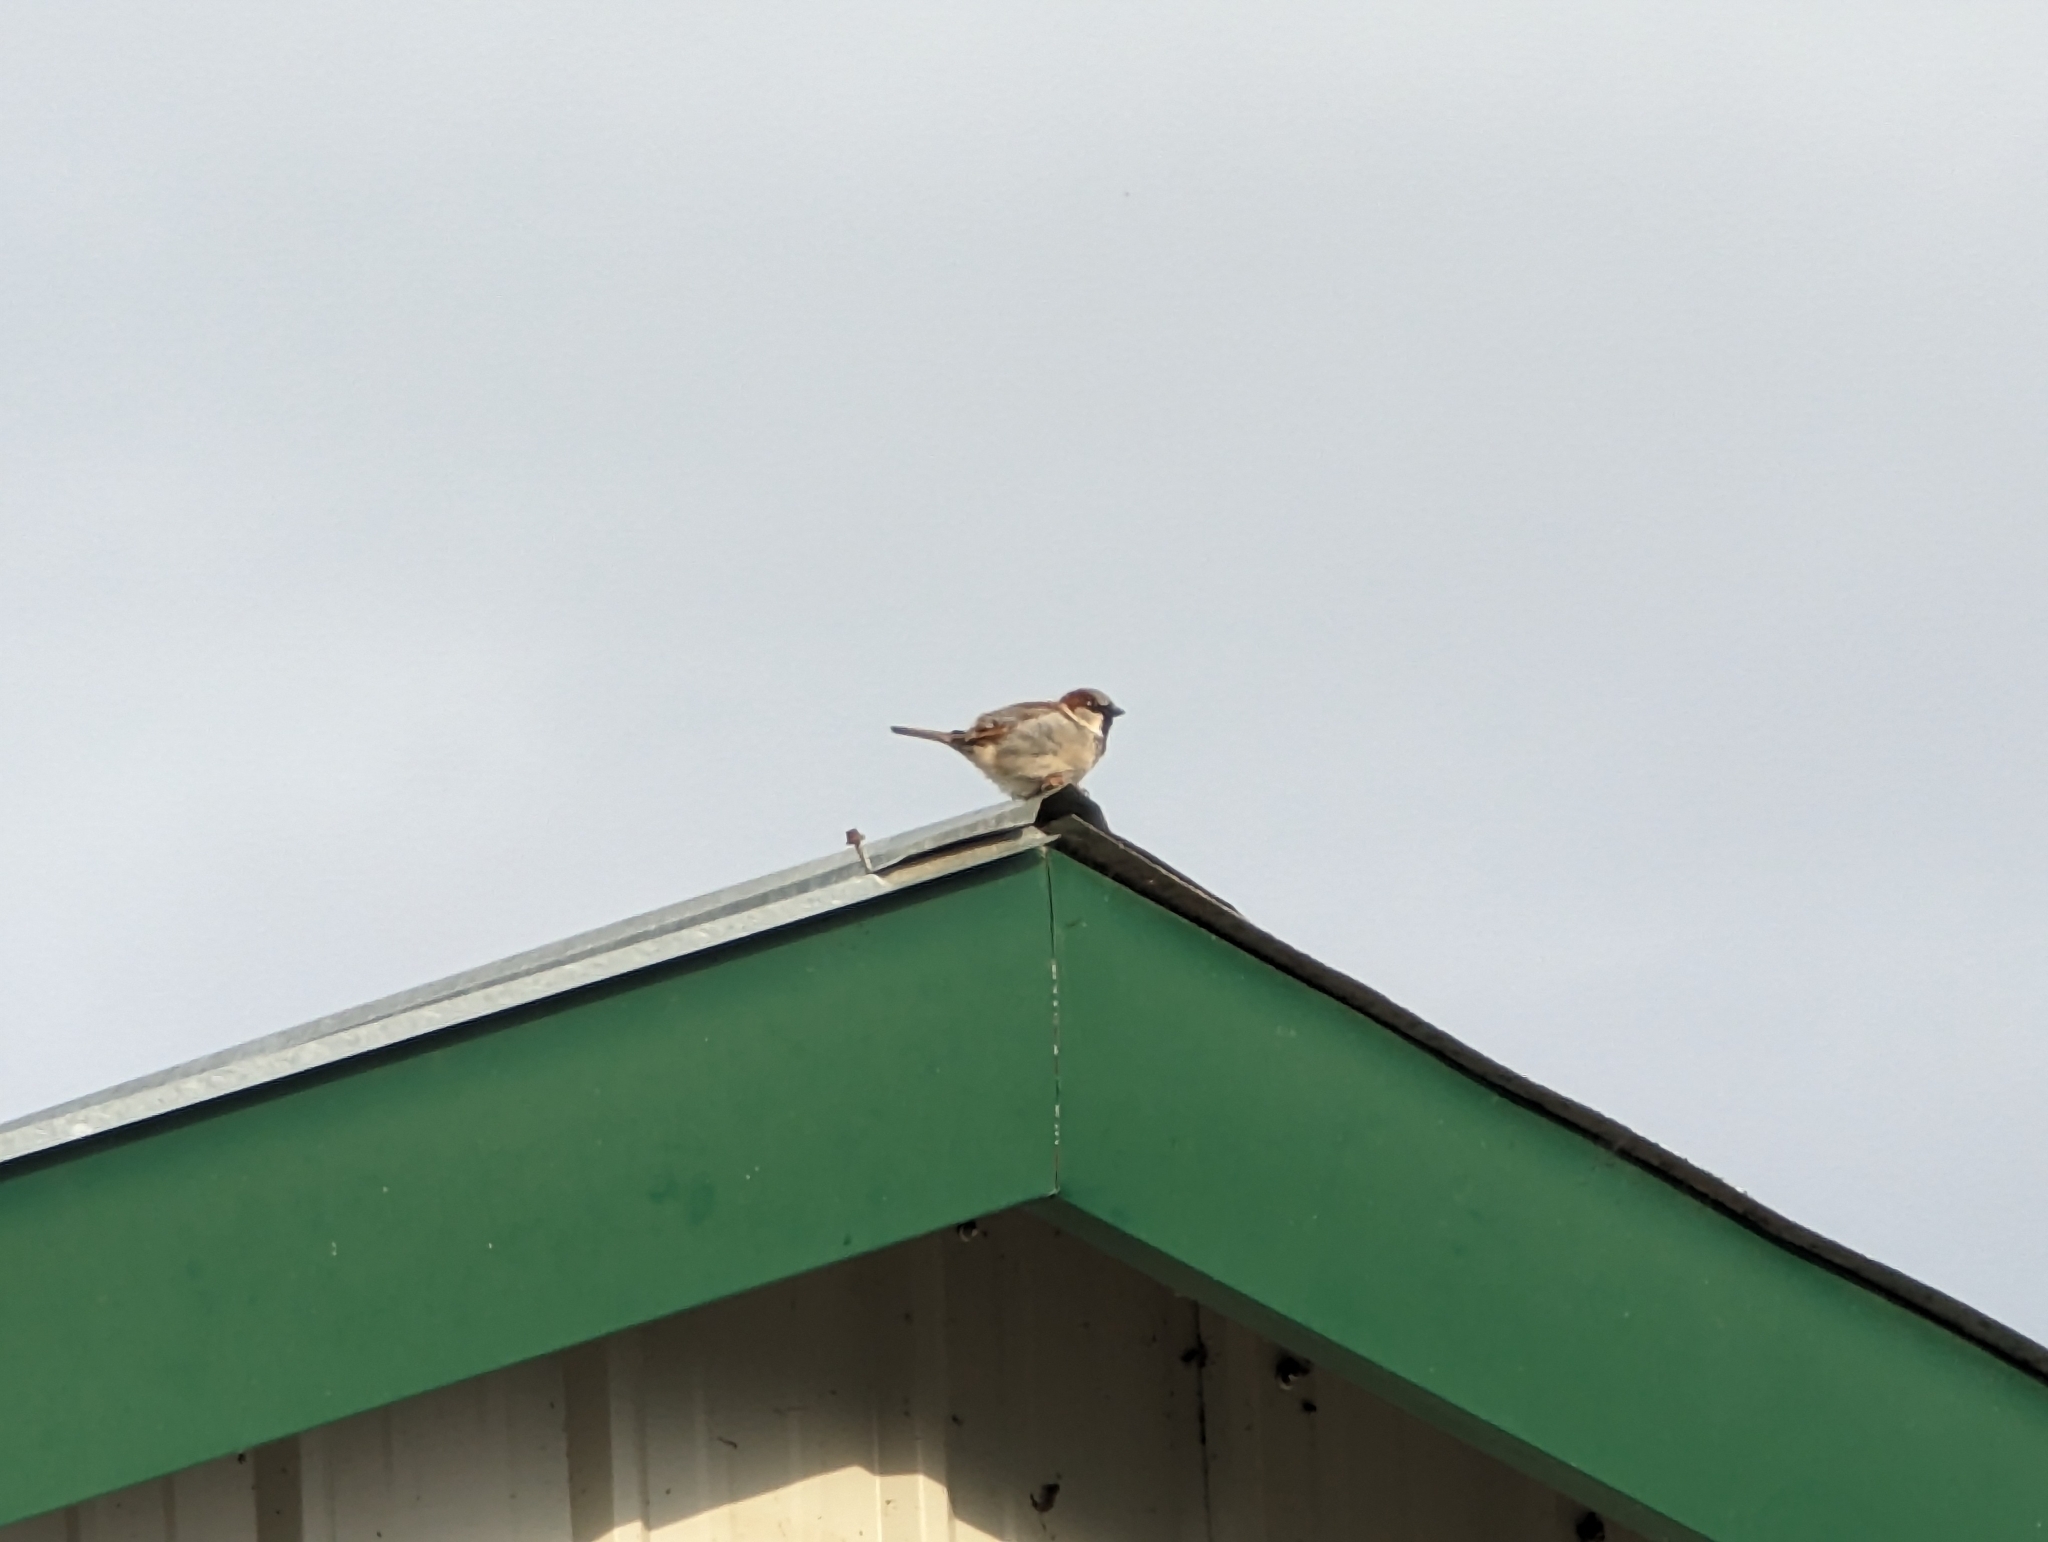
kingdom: Animalia
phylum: Chordata
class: Aves
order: Passeriformes
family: Passeridae
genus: Passer
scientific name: Passer domesticus
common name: House sparrow
